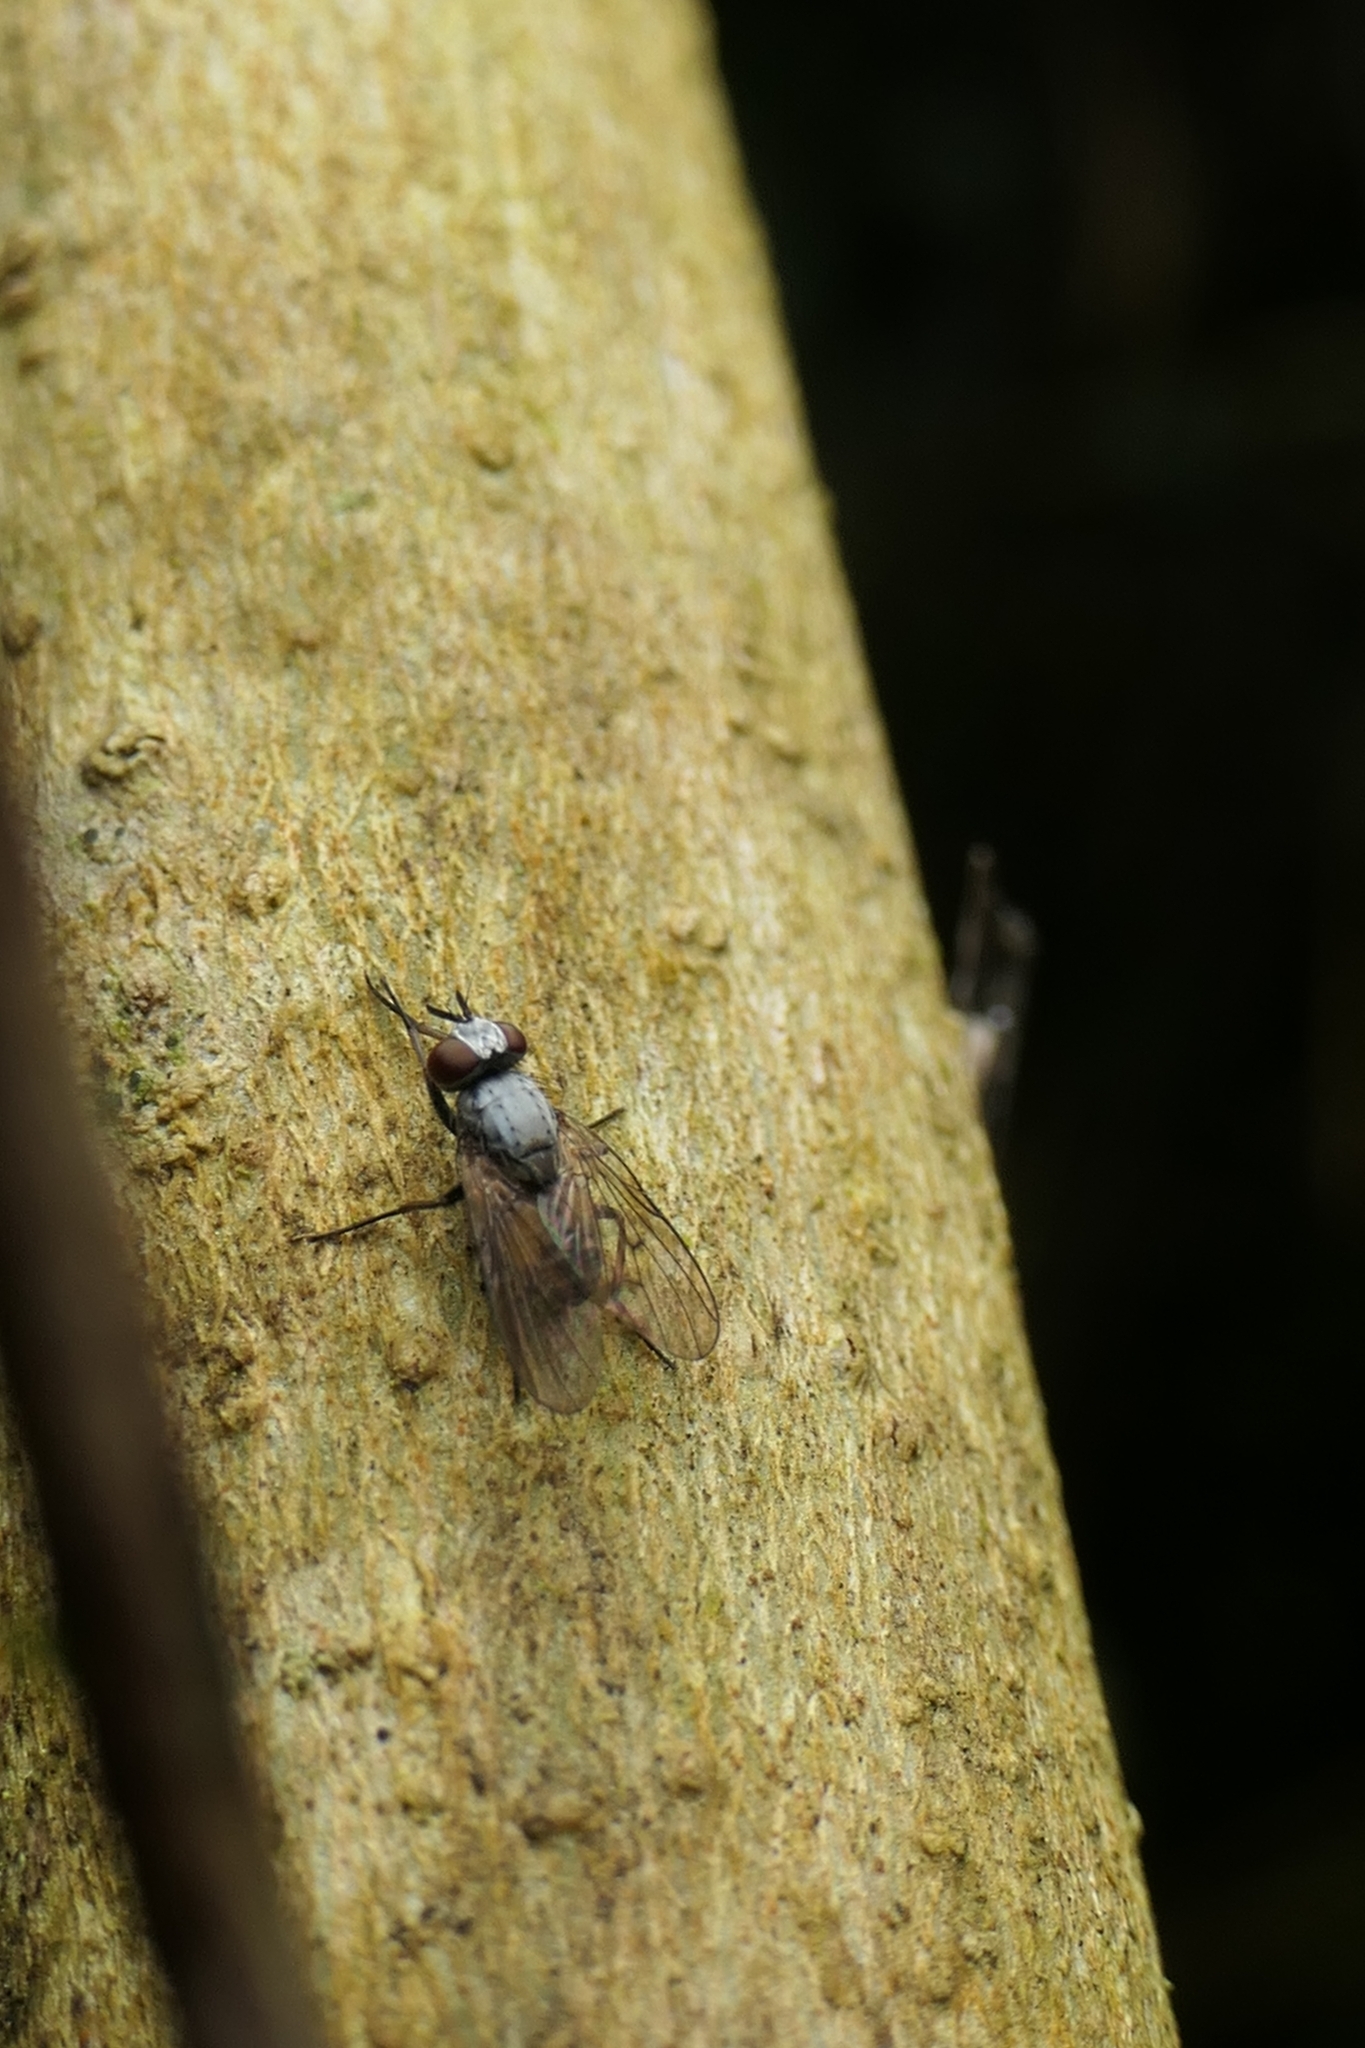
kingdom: Animalia
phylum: Arthropoda
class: Insecta
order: Diptera
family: Muscidae
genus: Spilogona
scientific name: Spilogona flaviventris
